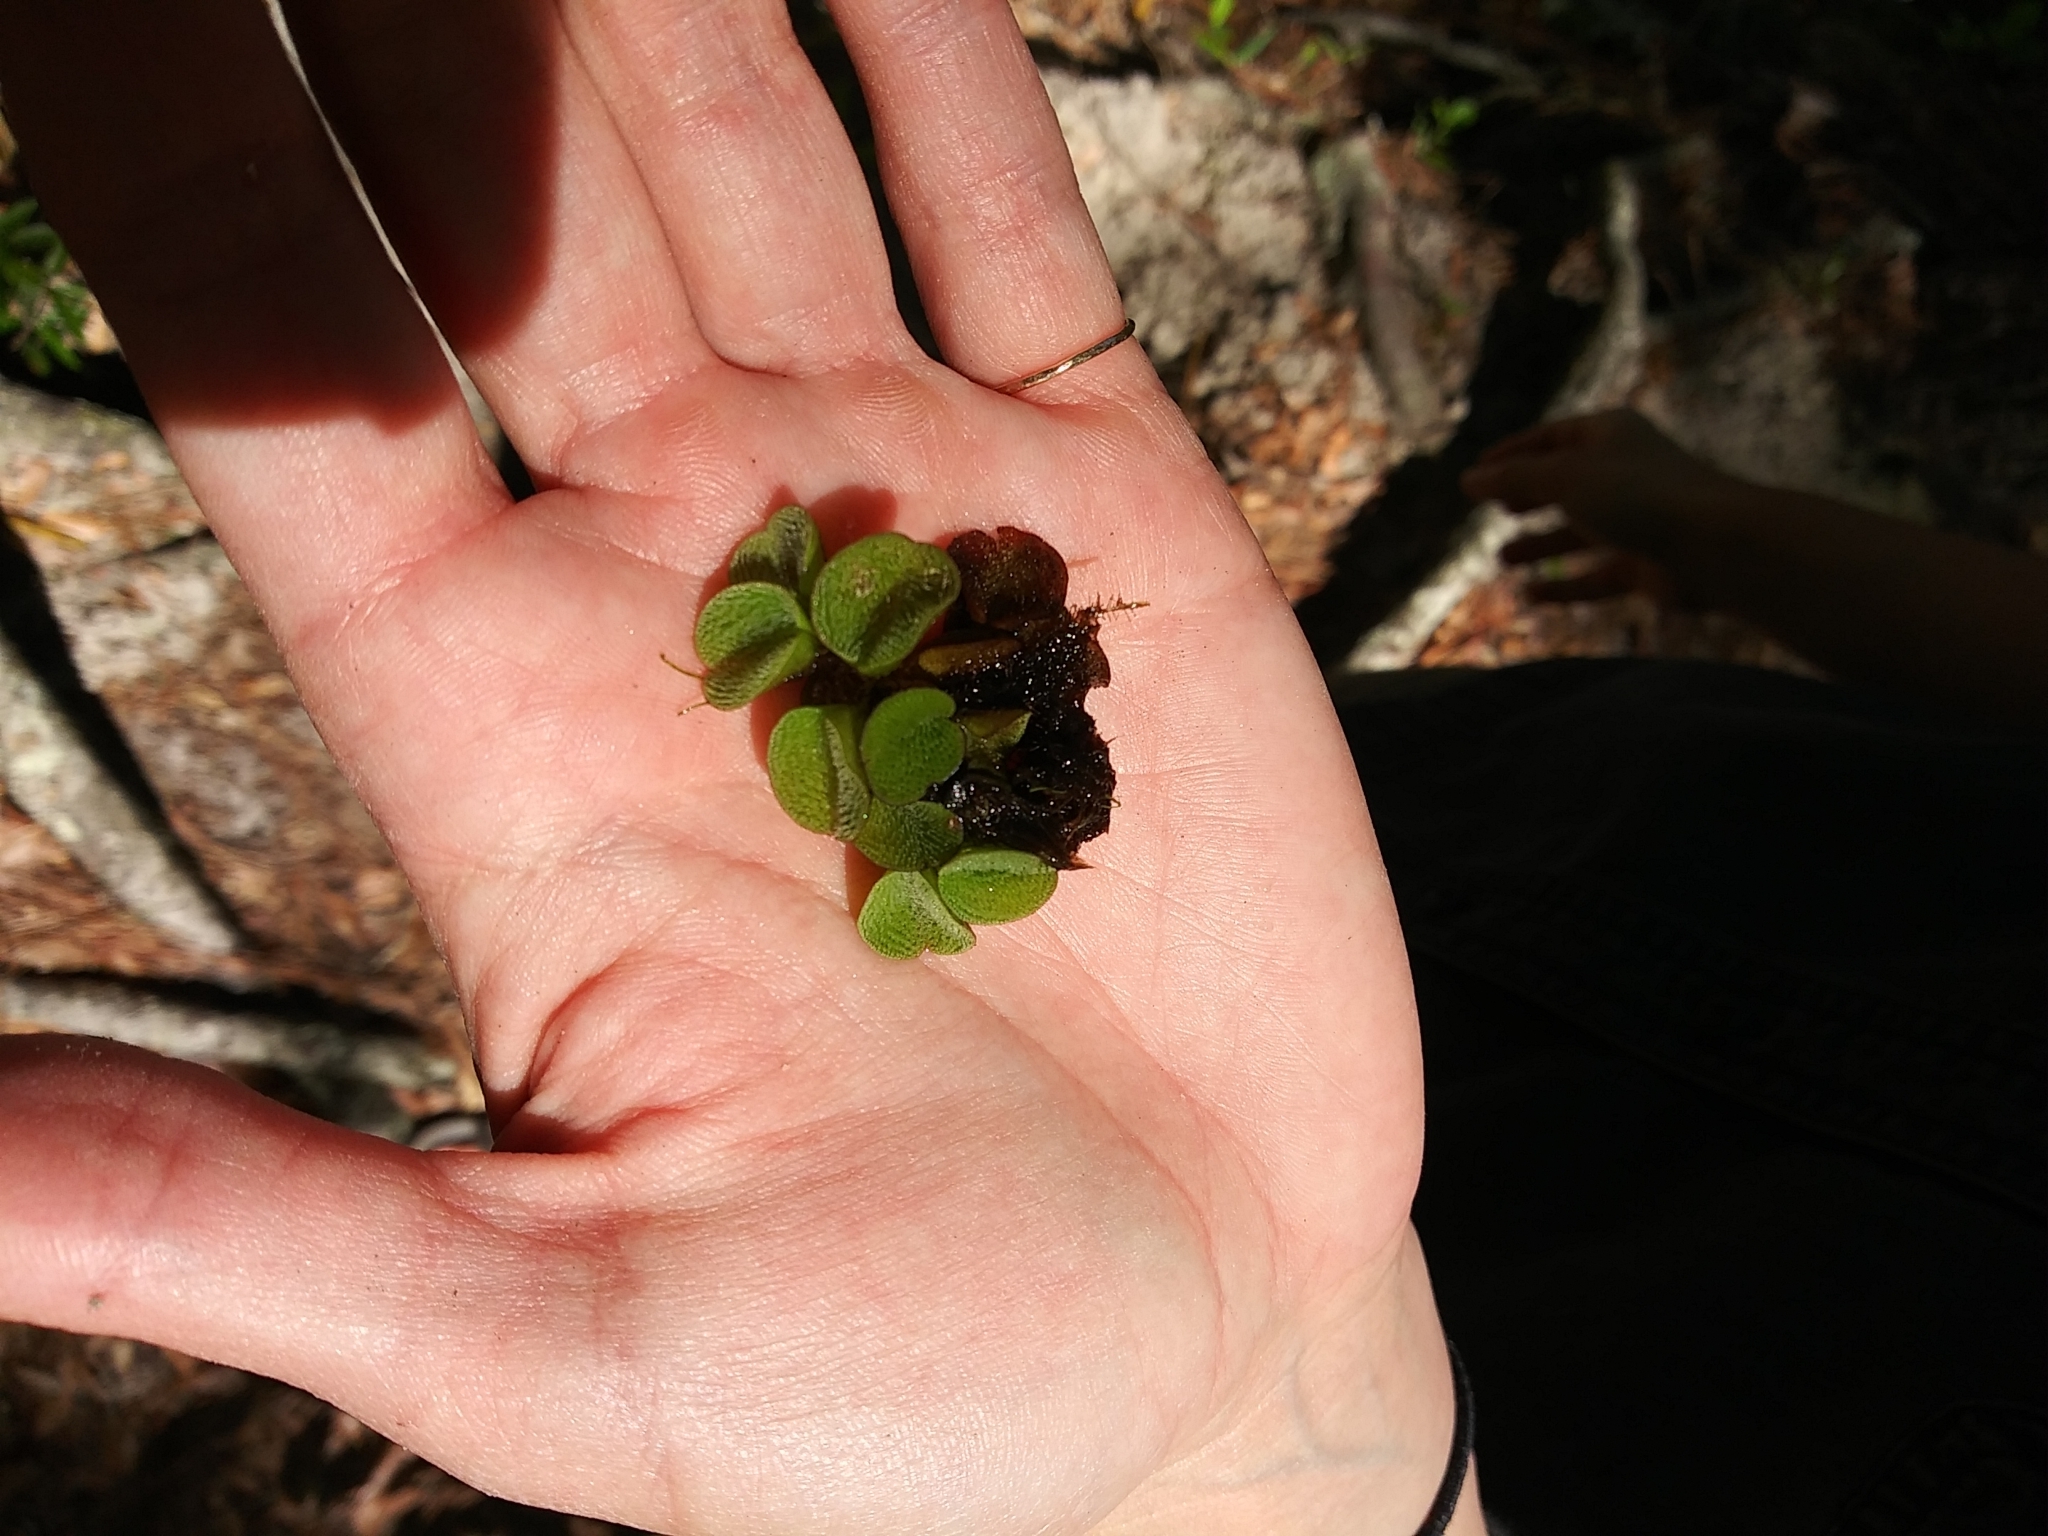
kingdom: Plantae
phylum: Tracheophyta
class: Polypodiopsida
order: Salviniales
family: Salviniaceae
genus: Salvinia
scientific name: Salvinia minima
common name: Water spangles
